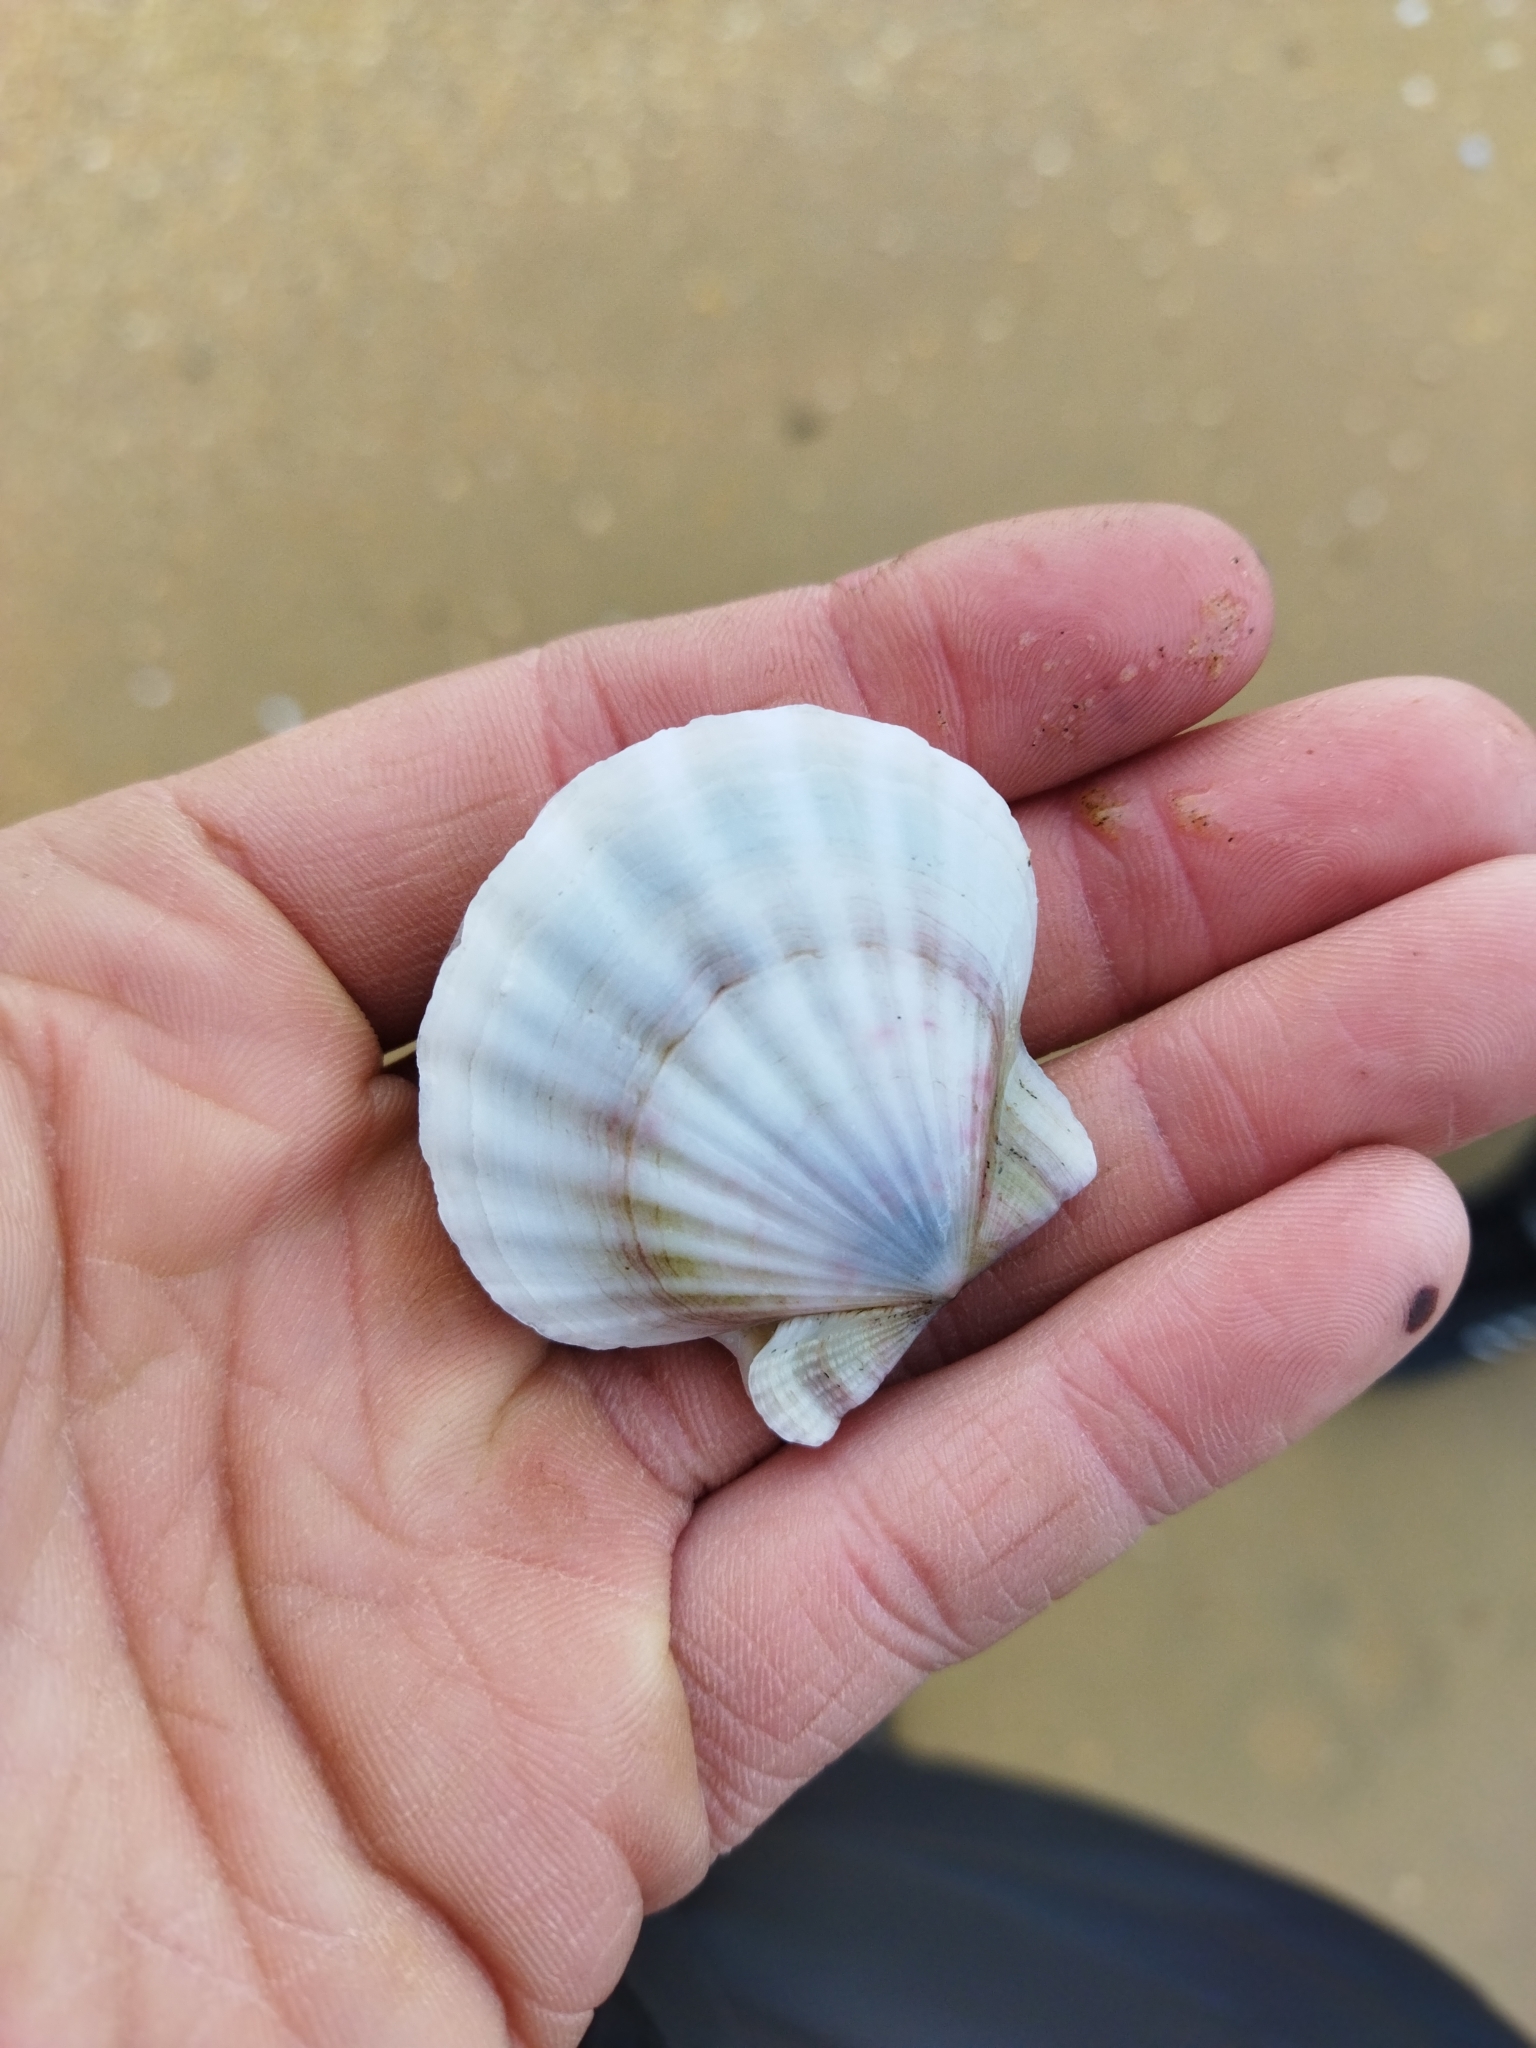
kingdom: Animalia
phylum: Mollusca
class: Bivalvia
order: Pectinida
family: Pectinidae
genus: Flexopecten
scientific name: Flexopecten glaber
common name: Smooth scallop
